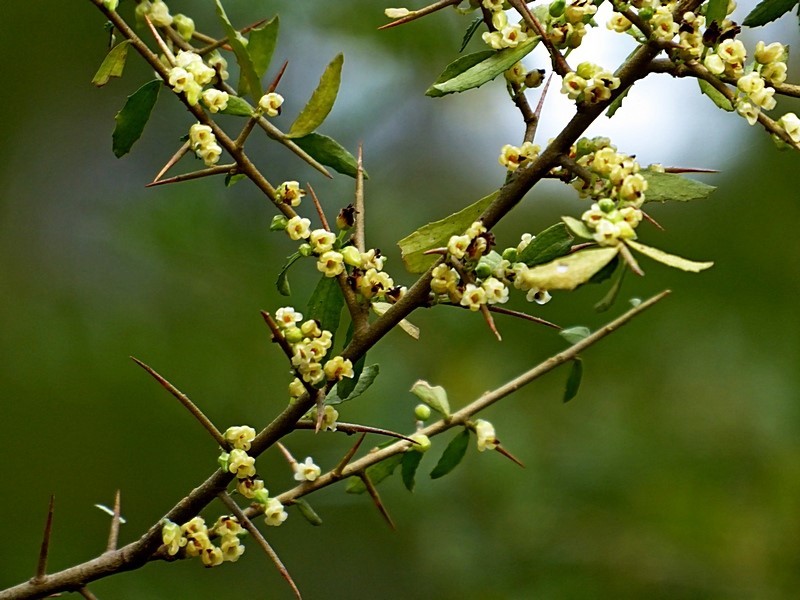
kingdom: Plantae
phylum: Tracheophyta
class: Magnoliopsida
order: Malpighiales
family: Violaceae
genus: Melicytus
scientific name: Melicytus dentatus
